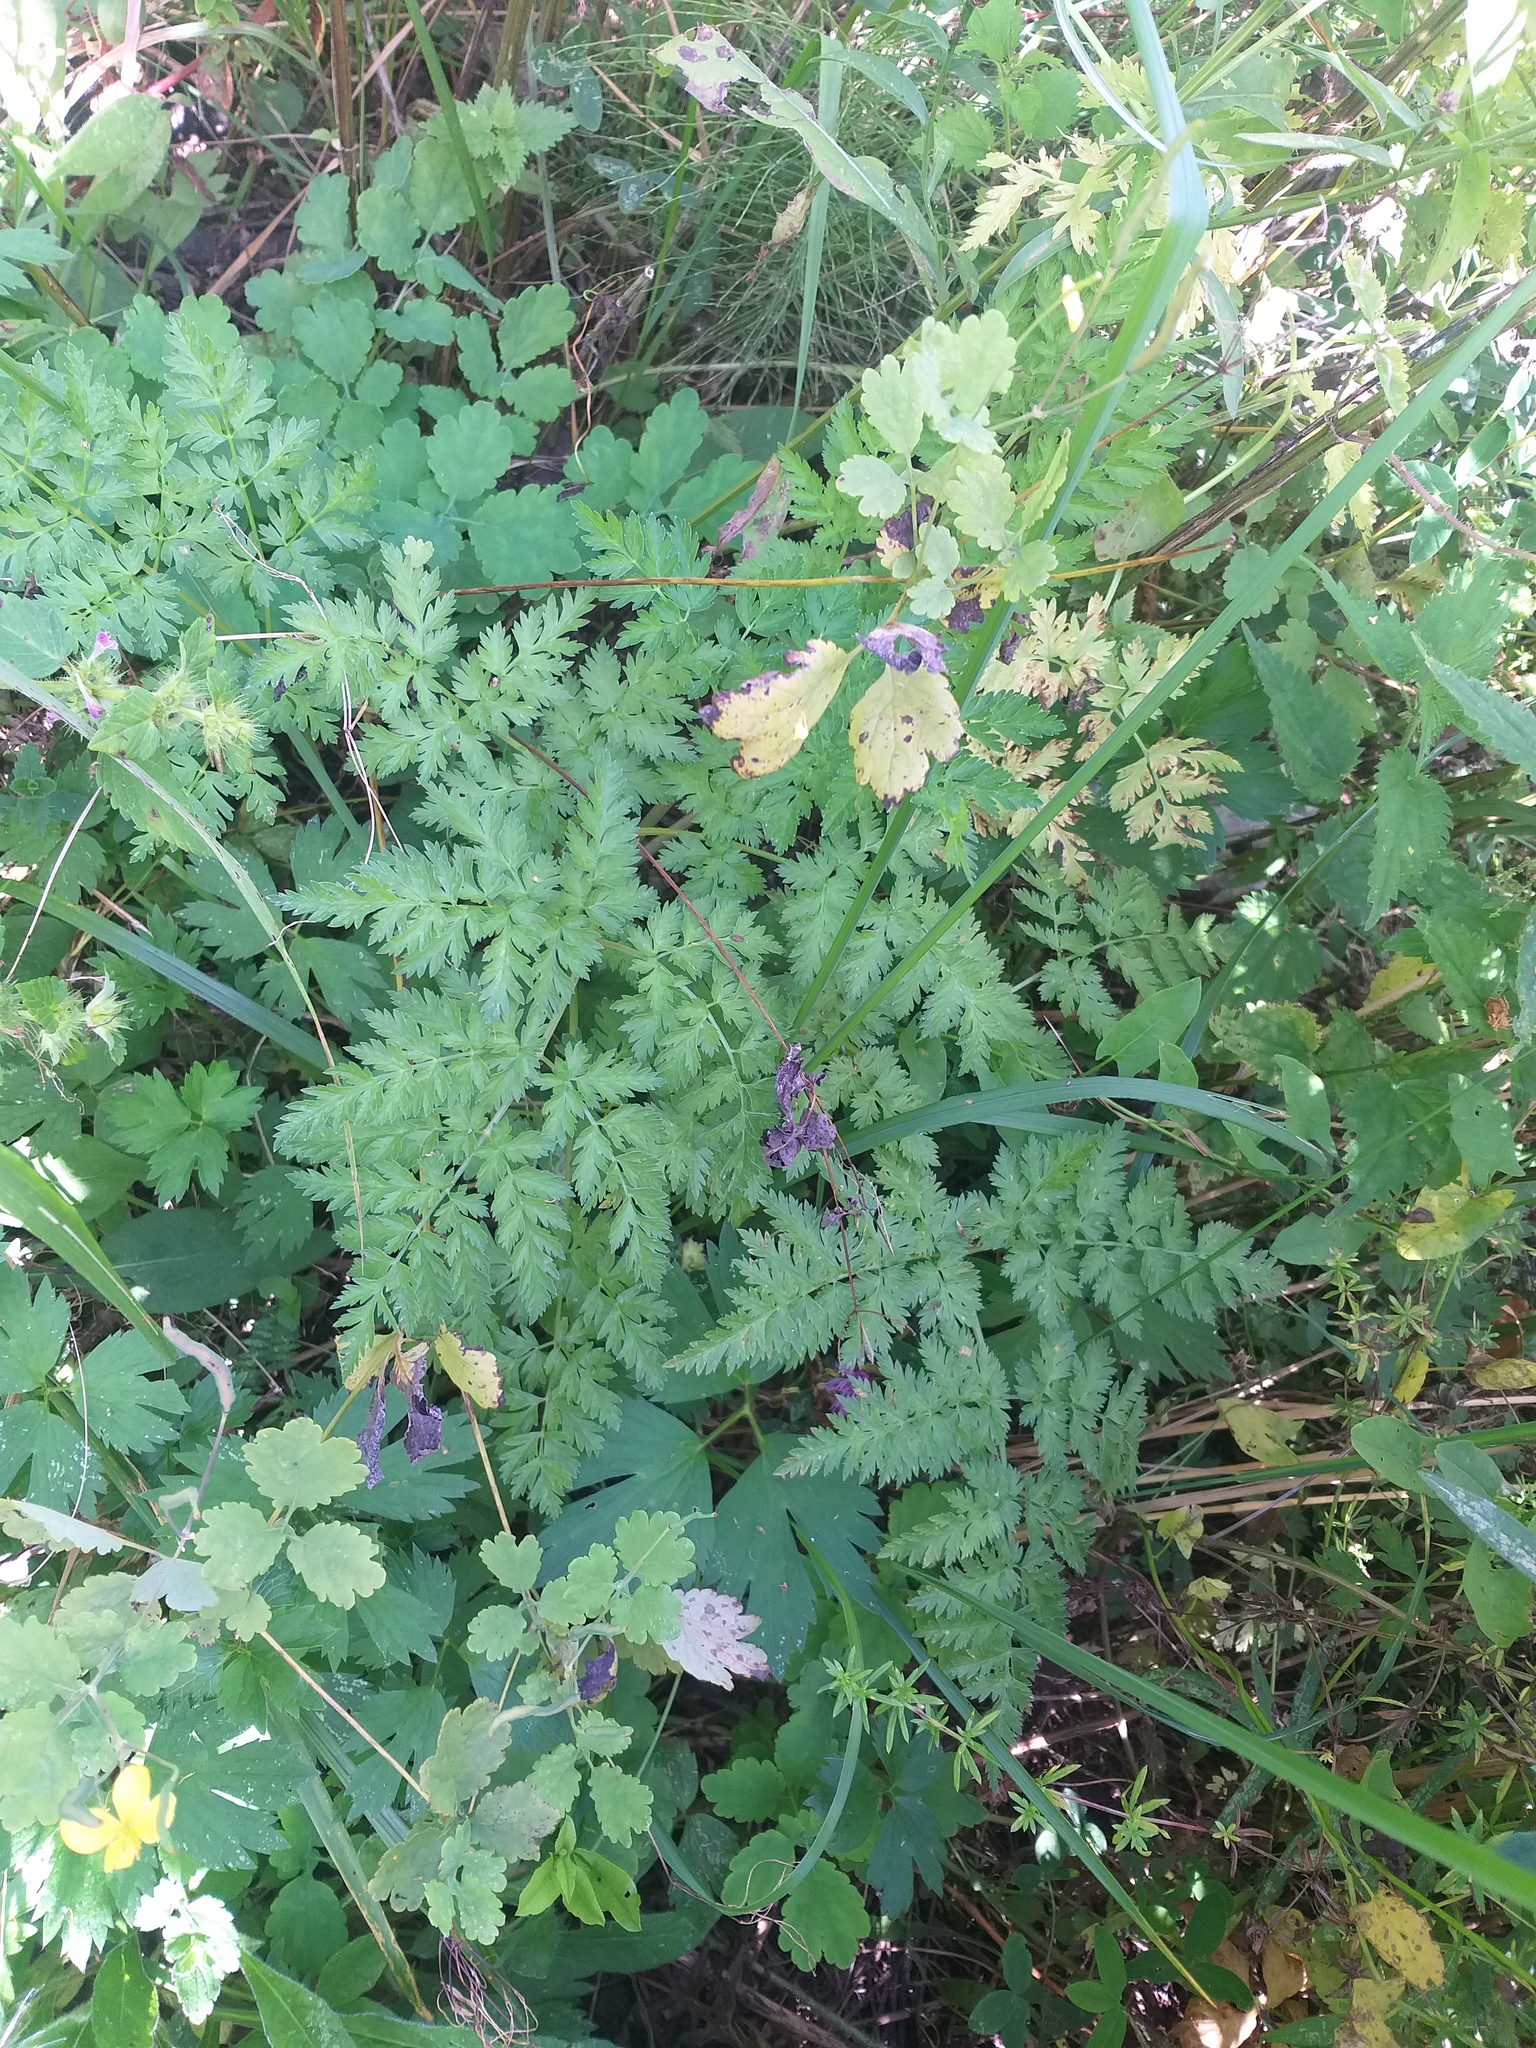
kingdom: Plantae
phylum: Tracheophyta
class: Magnoliopsida
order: Apiales
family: Apiaceae
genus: Anthriscus
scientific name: Anthriscus sylvestris
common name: Cow parsley
